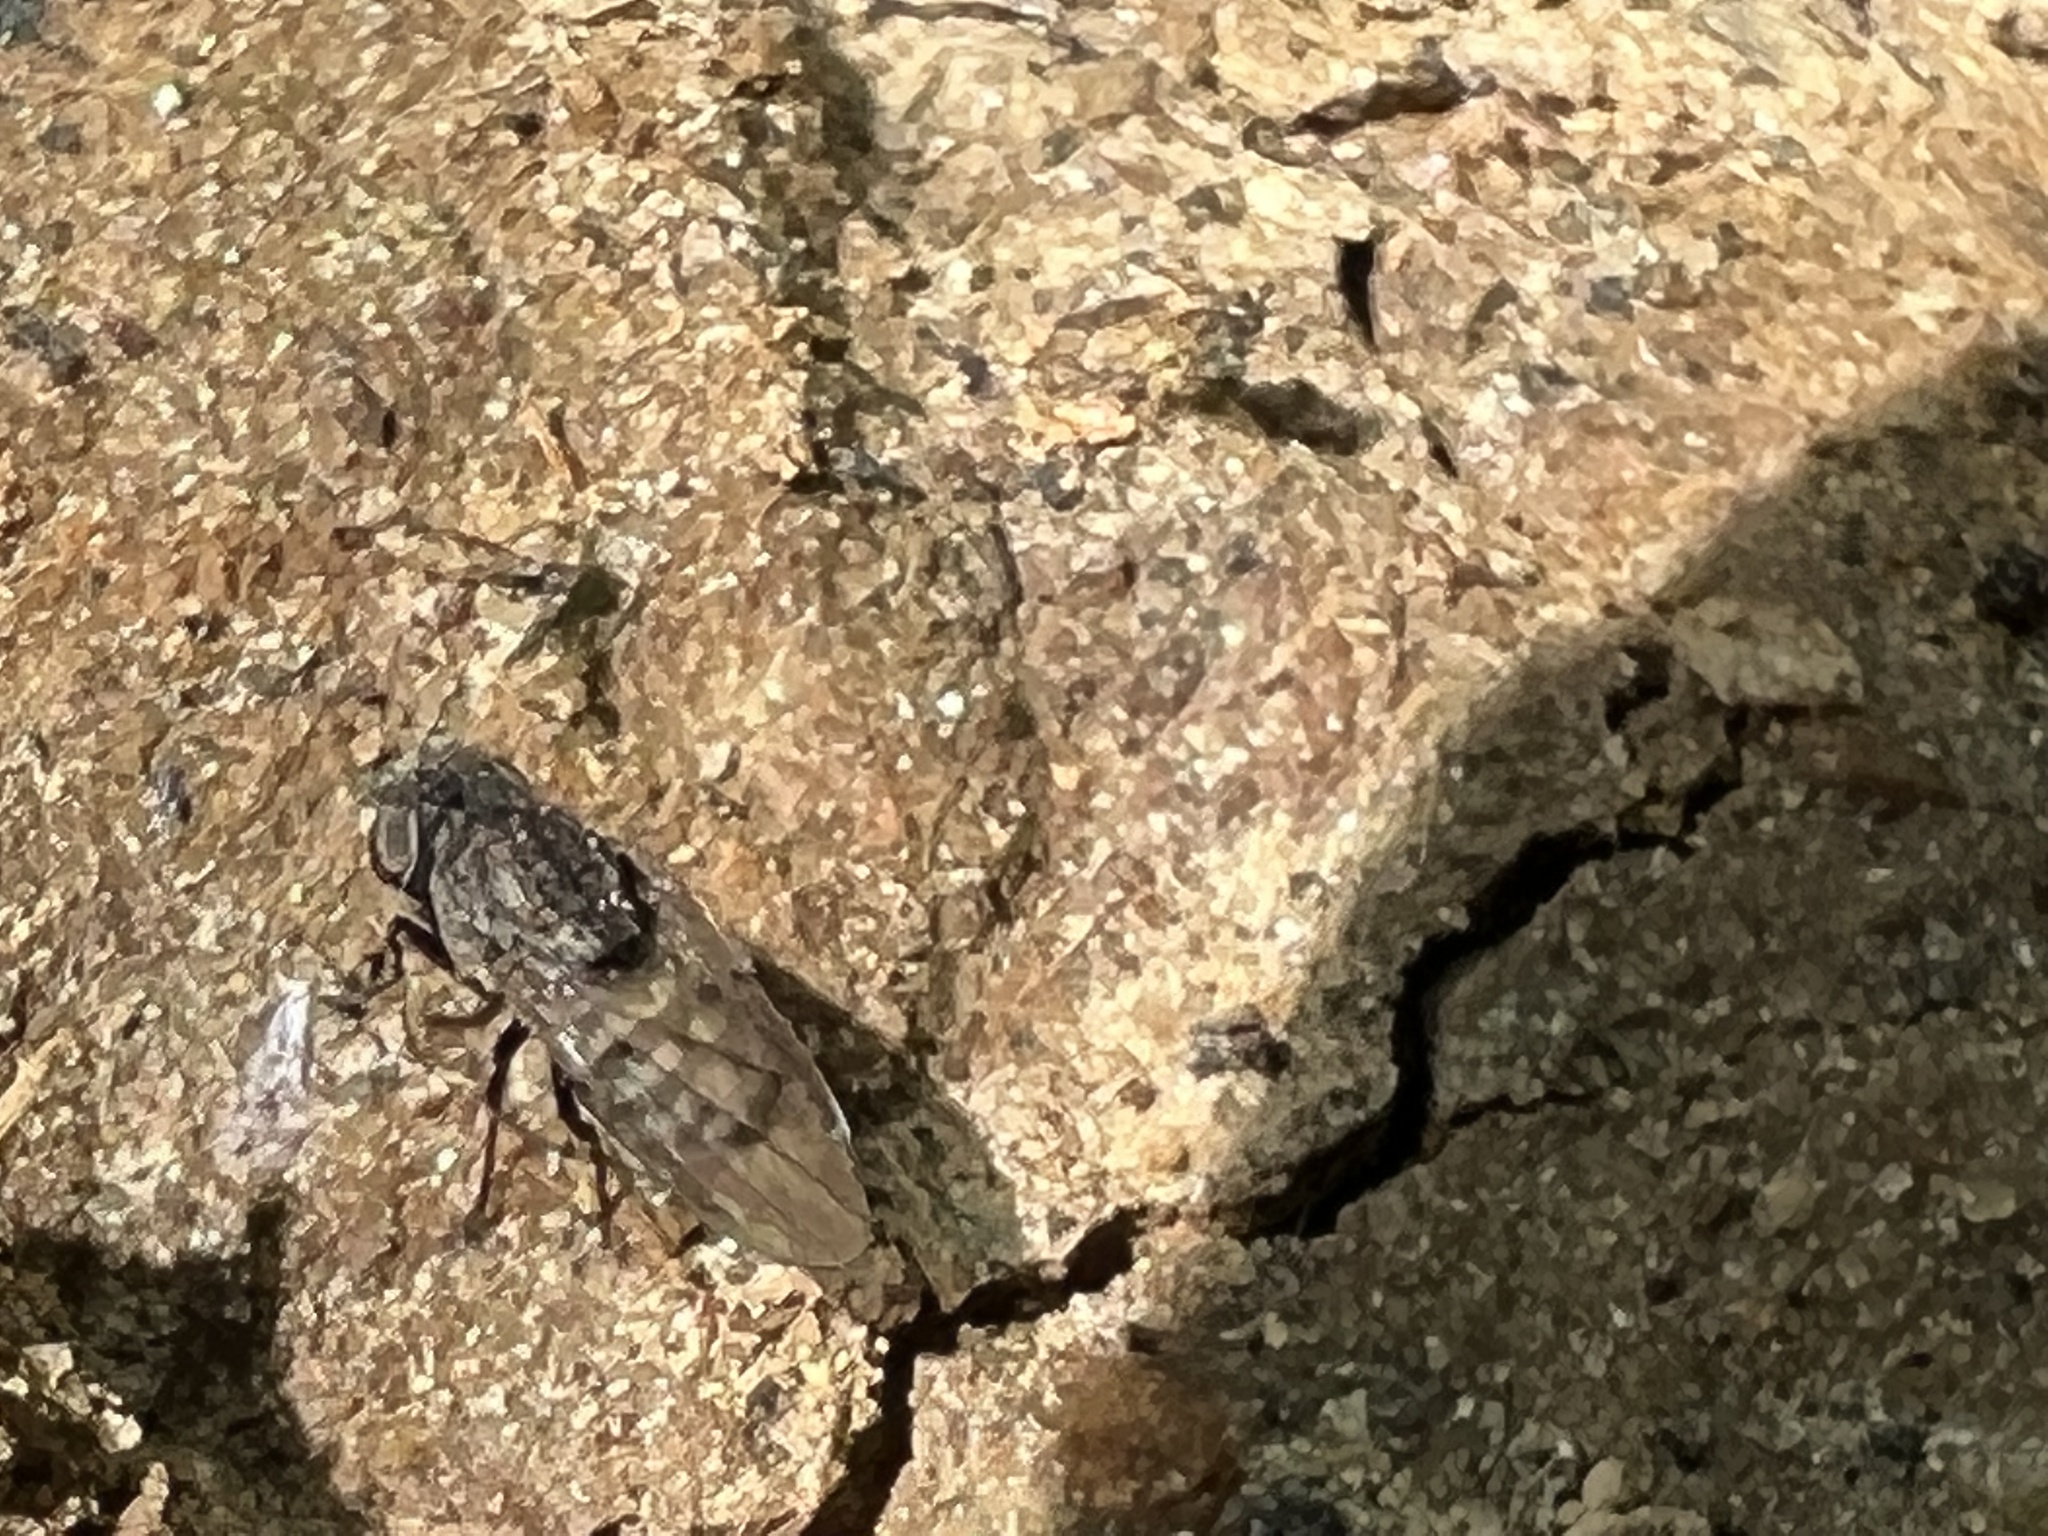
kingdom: Animalia
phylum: Arthropoda
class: Insecta
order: Diptera
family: Ephydridae
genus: Paralimna
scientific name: Paralimna punctipennis
